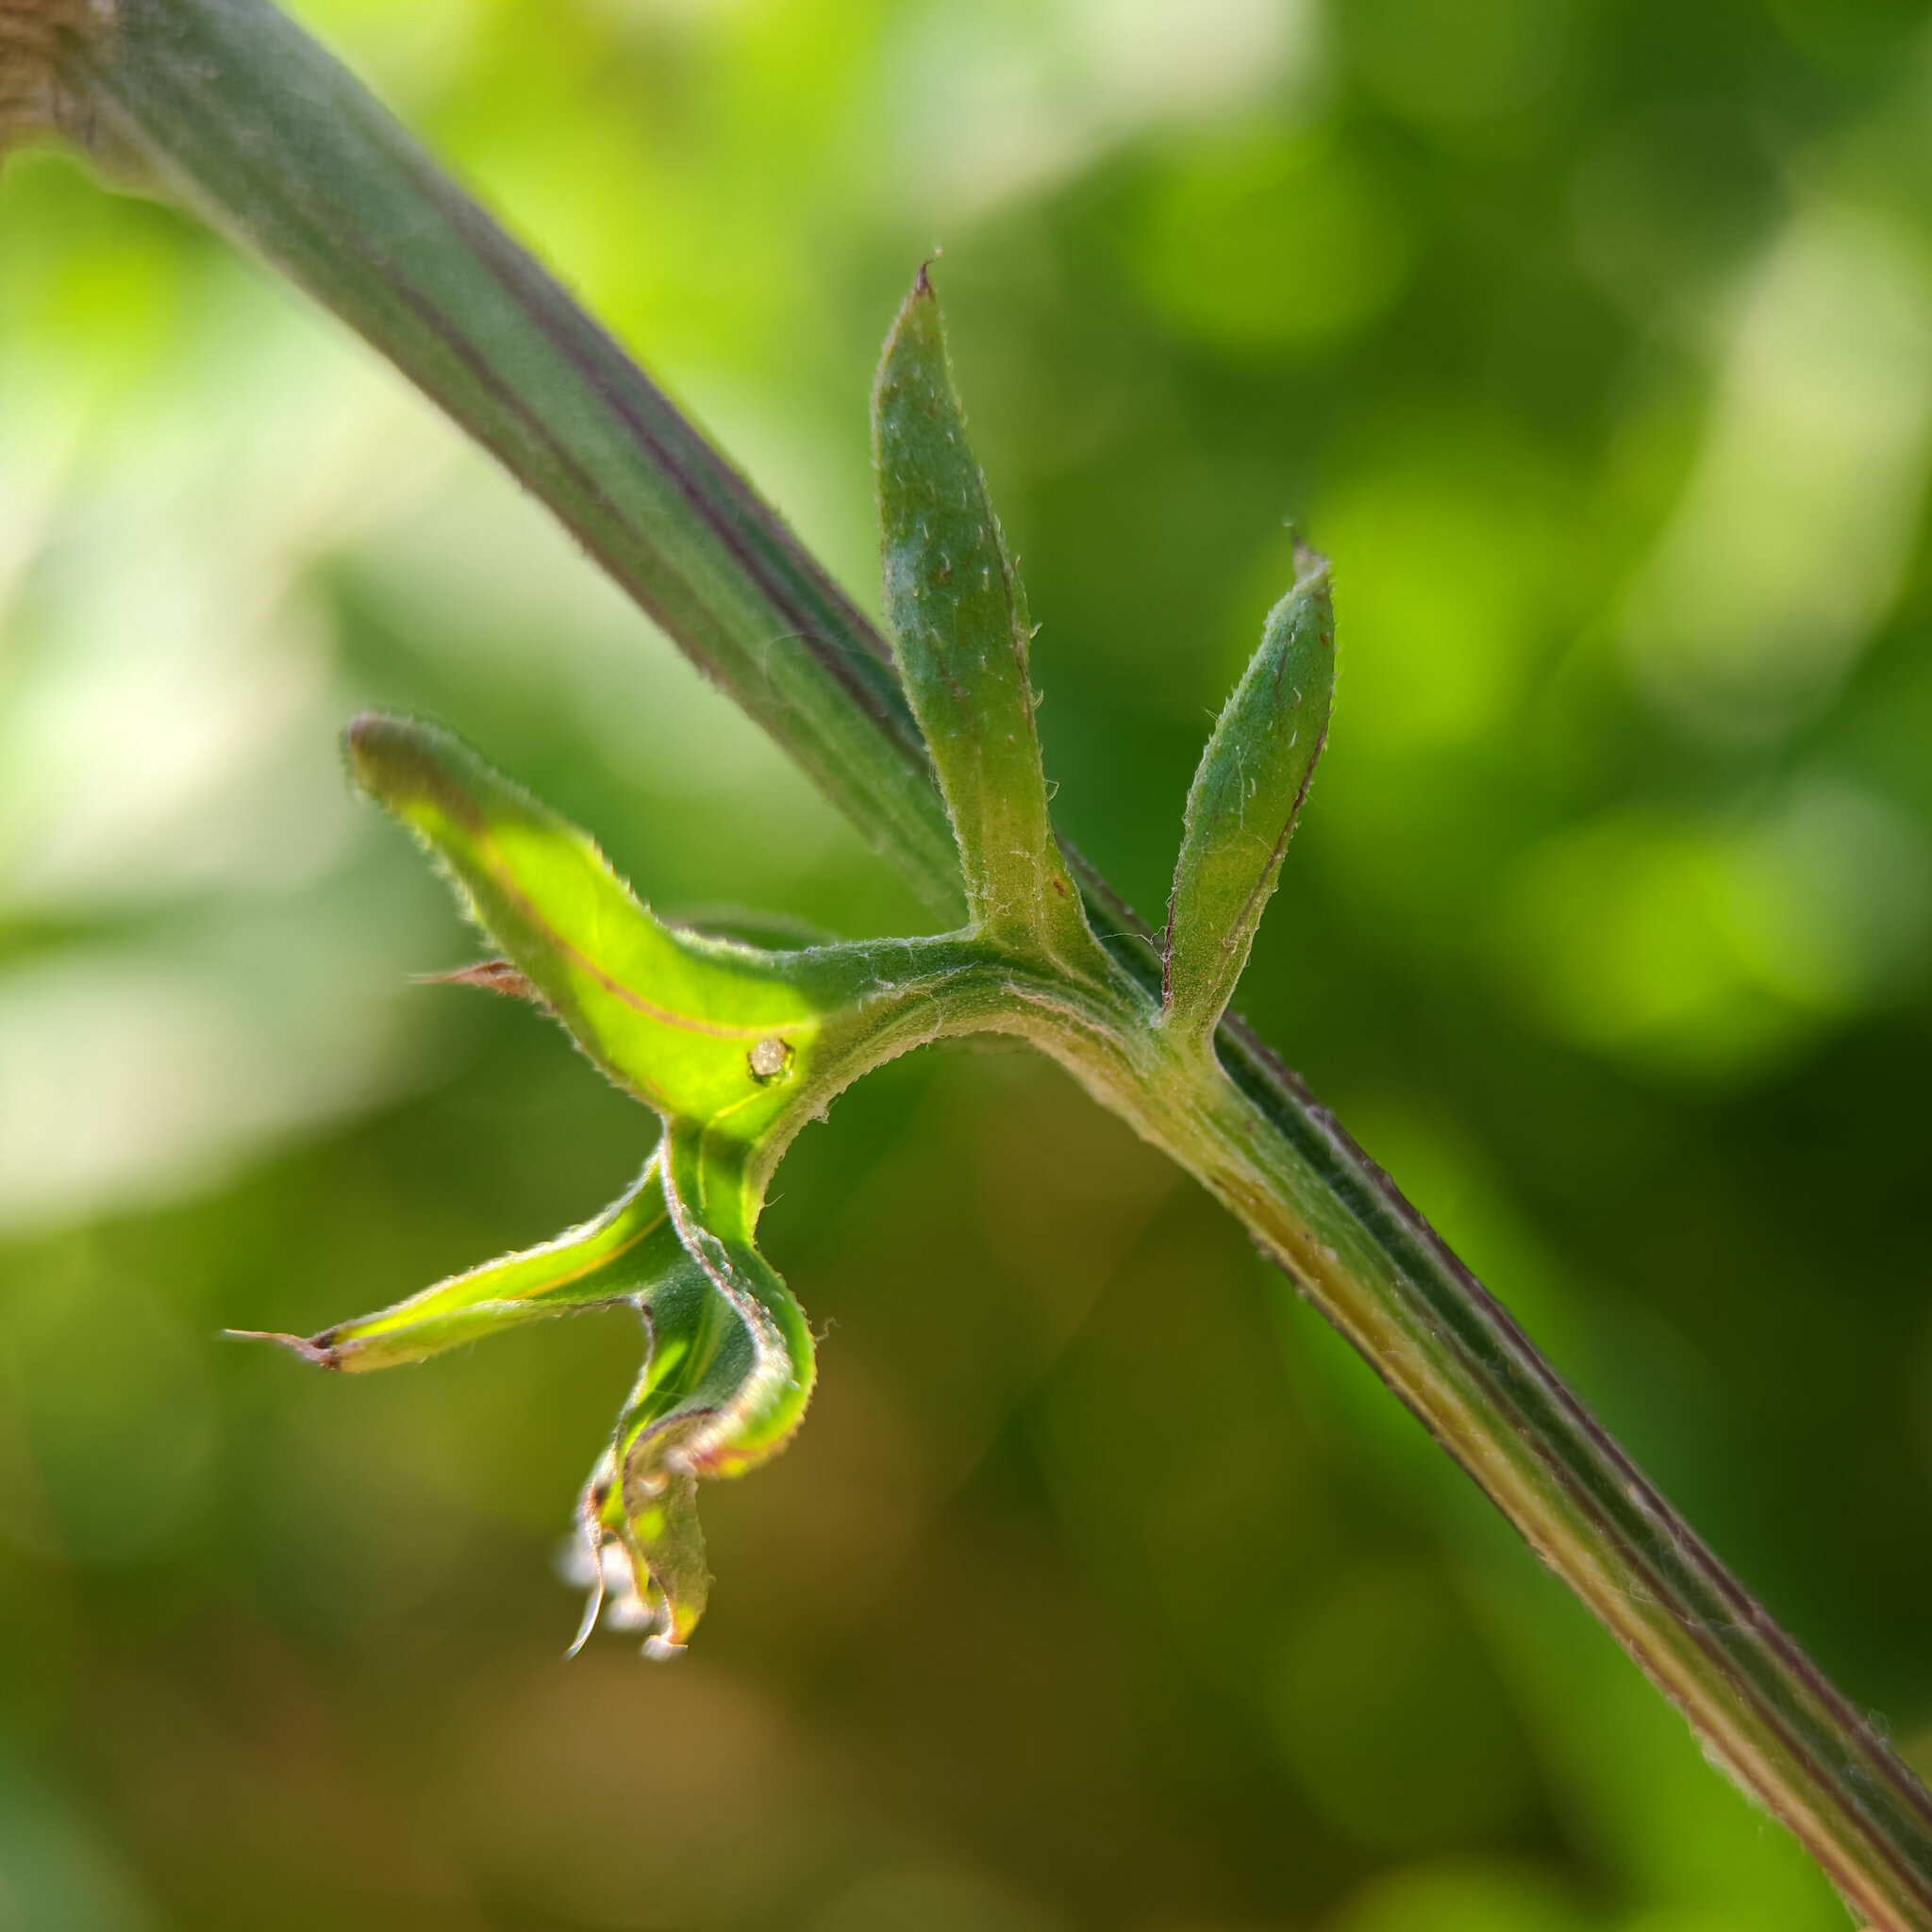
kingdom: Plantae
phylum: Tracheophyta
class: Magnoliopsida
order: Asterales
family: Asteraceae
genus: Centaurea
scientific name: Centaurea scabiosa
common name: Greater knapweed
